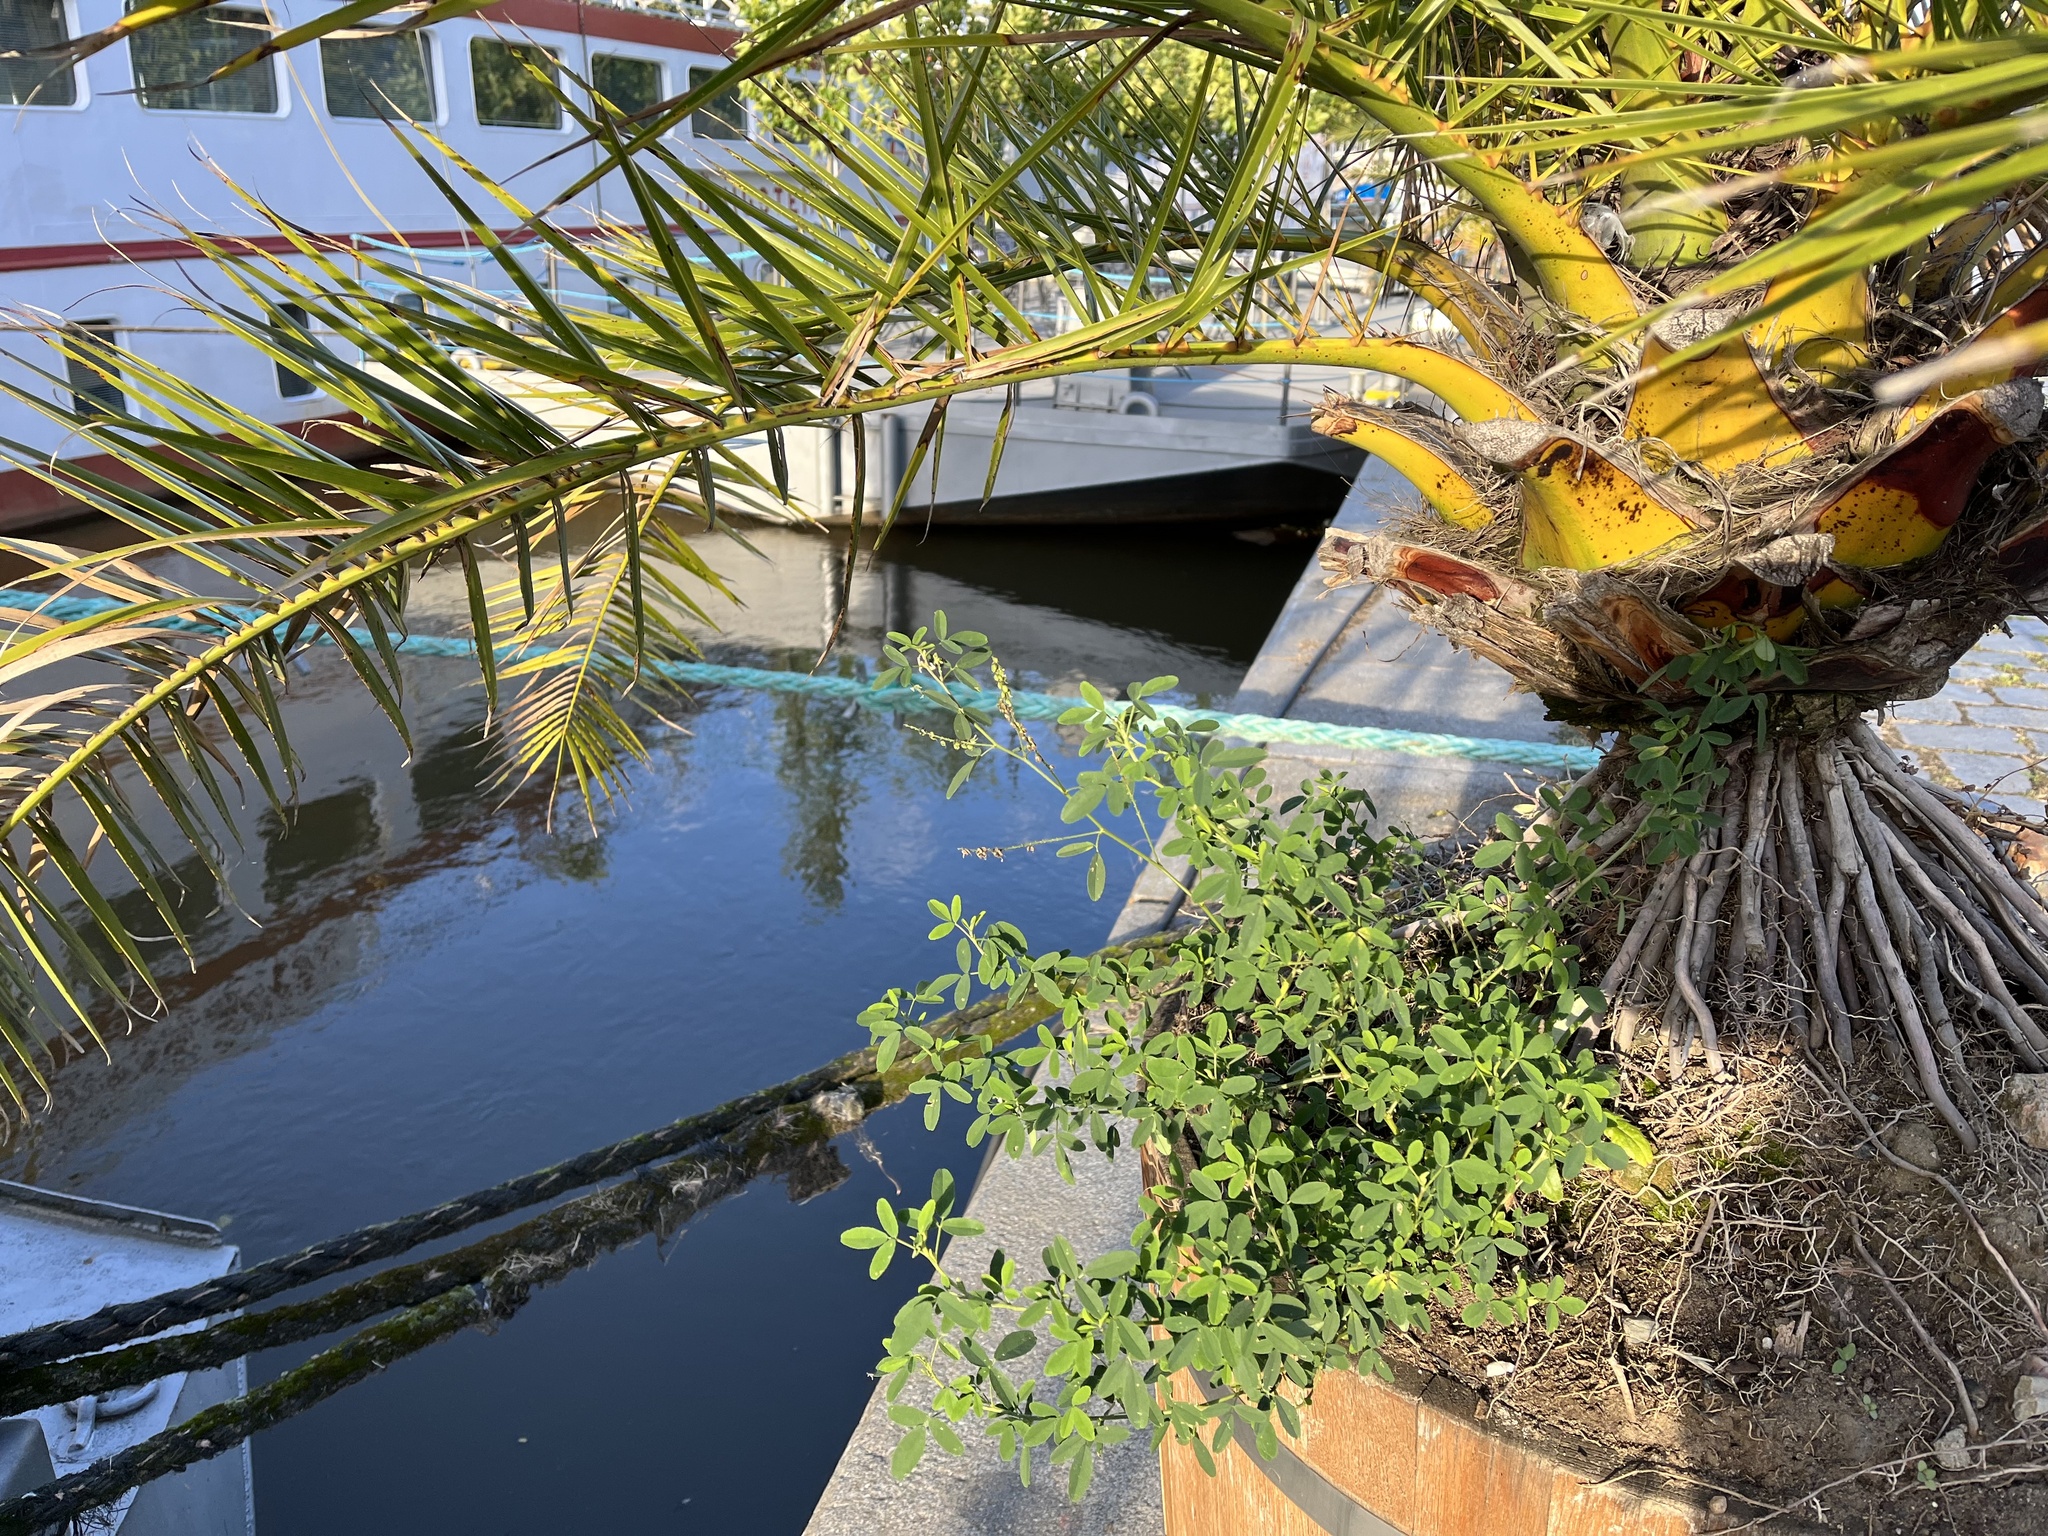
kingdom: Plantae
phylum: Tracheophyta
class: Magnoliopsida
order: Fabales
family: Fabaceae
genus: Melilotus
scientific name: Melilotus albus
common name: White melilot
